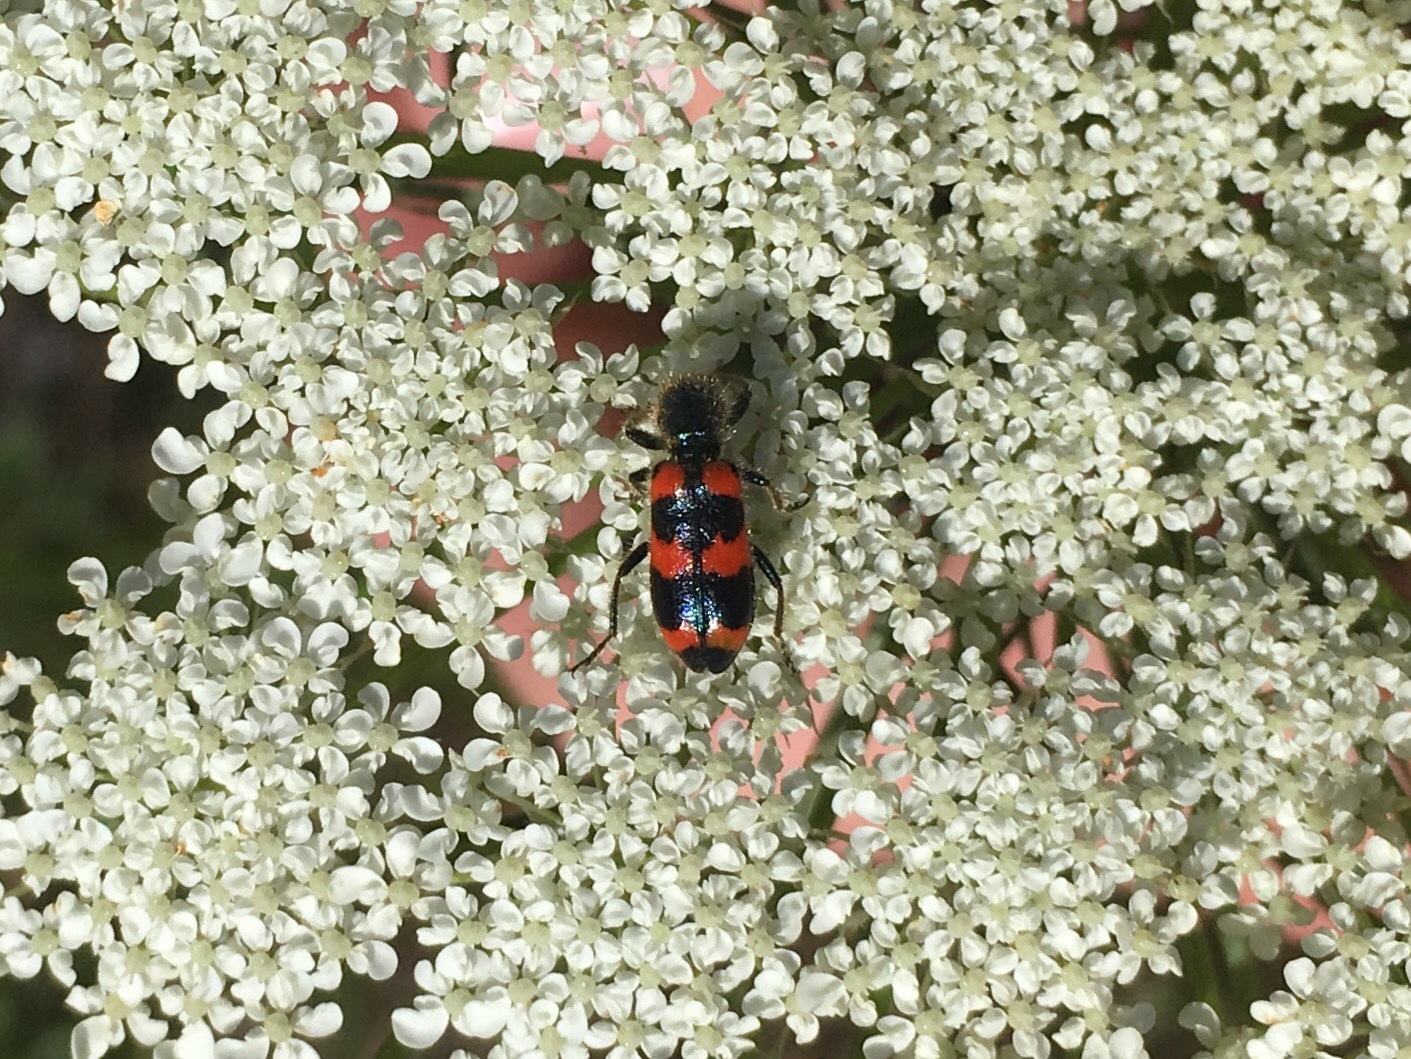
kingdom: Animalia
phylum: Arthropoda
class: Insecta
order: Coleoptera
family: Cleridae
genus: Trichodes
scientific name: Trichodes nutalli
